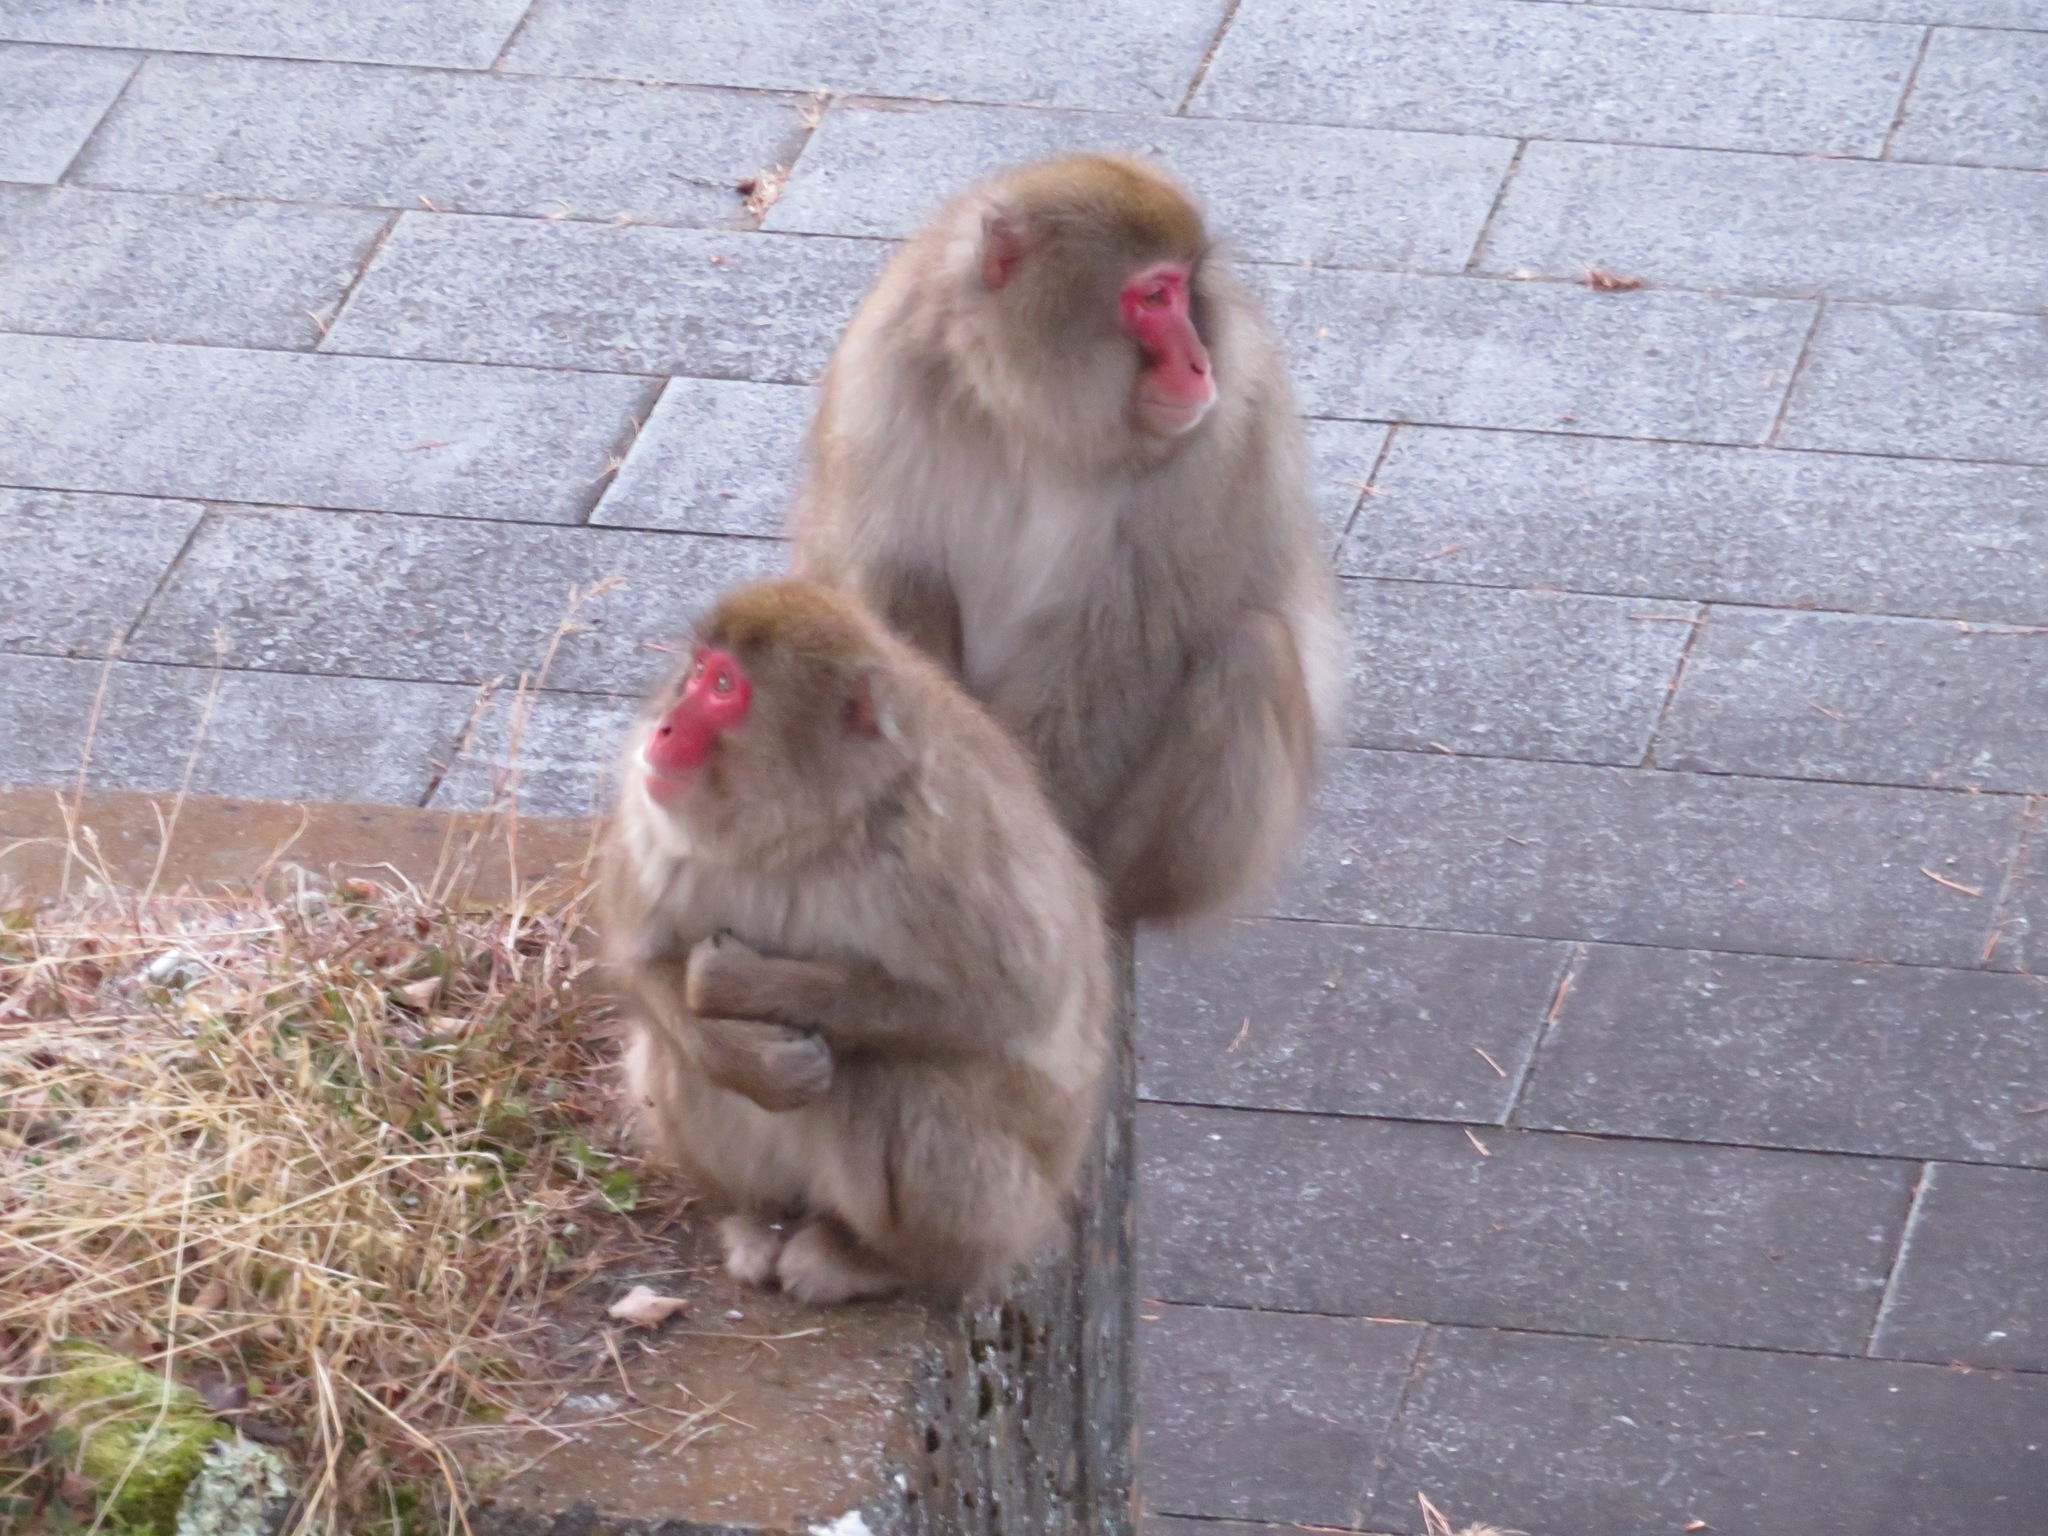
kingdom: Animalia
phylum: Chordata
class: Mammalia
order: Primates
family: Cercopithecidae
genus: Macaca
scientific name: Macaca fuscata
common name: Japanese macaque
